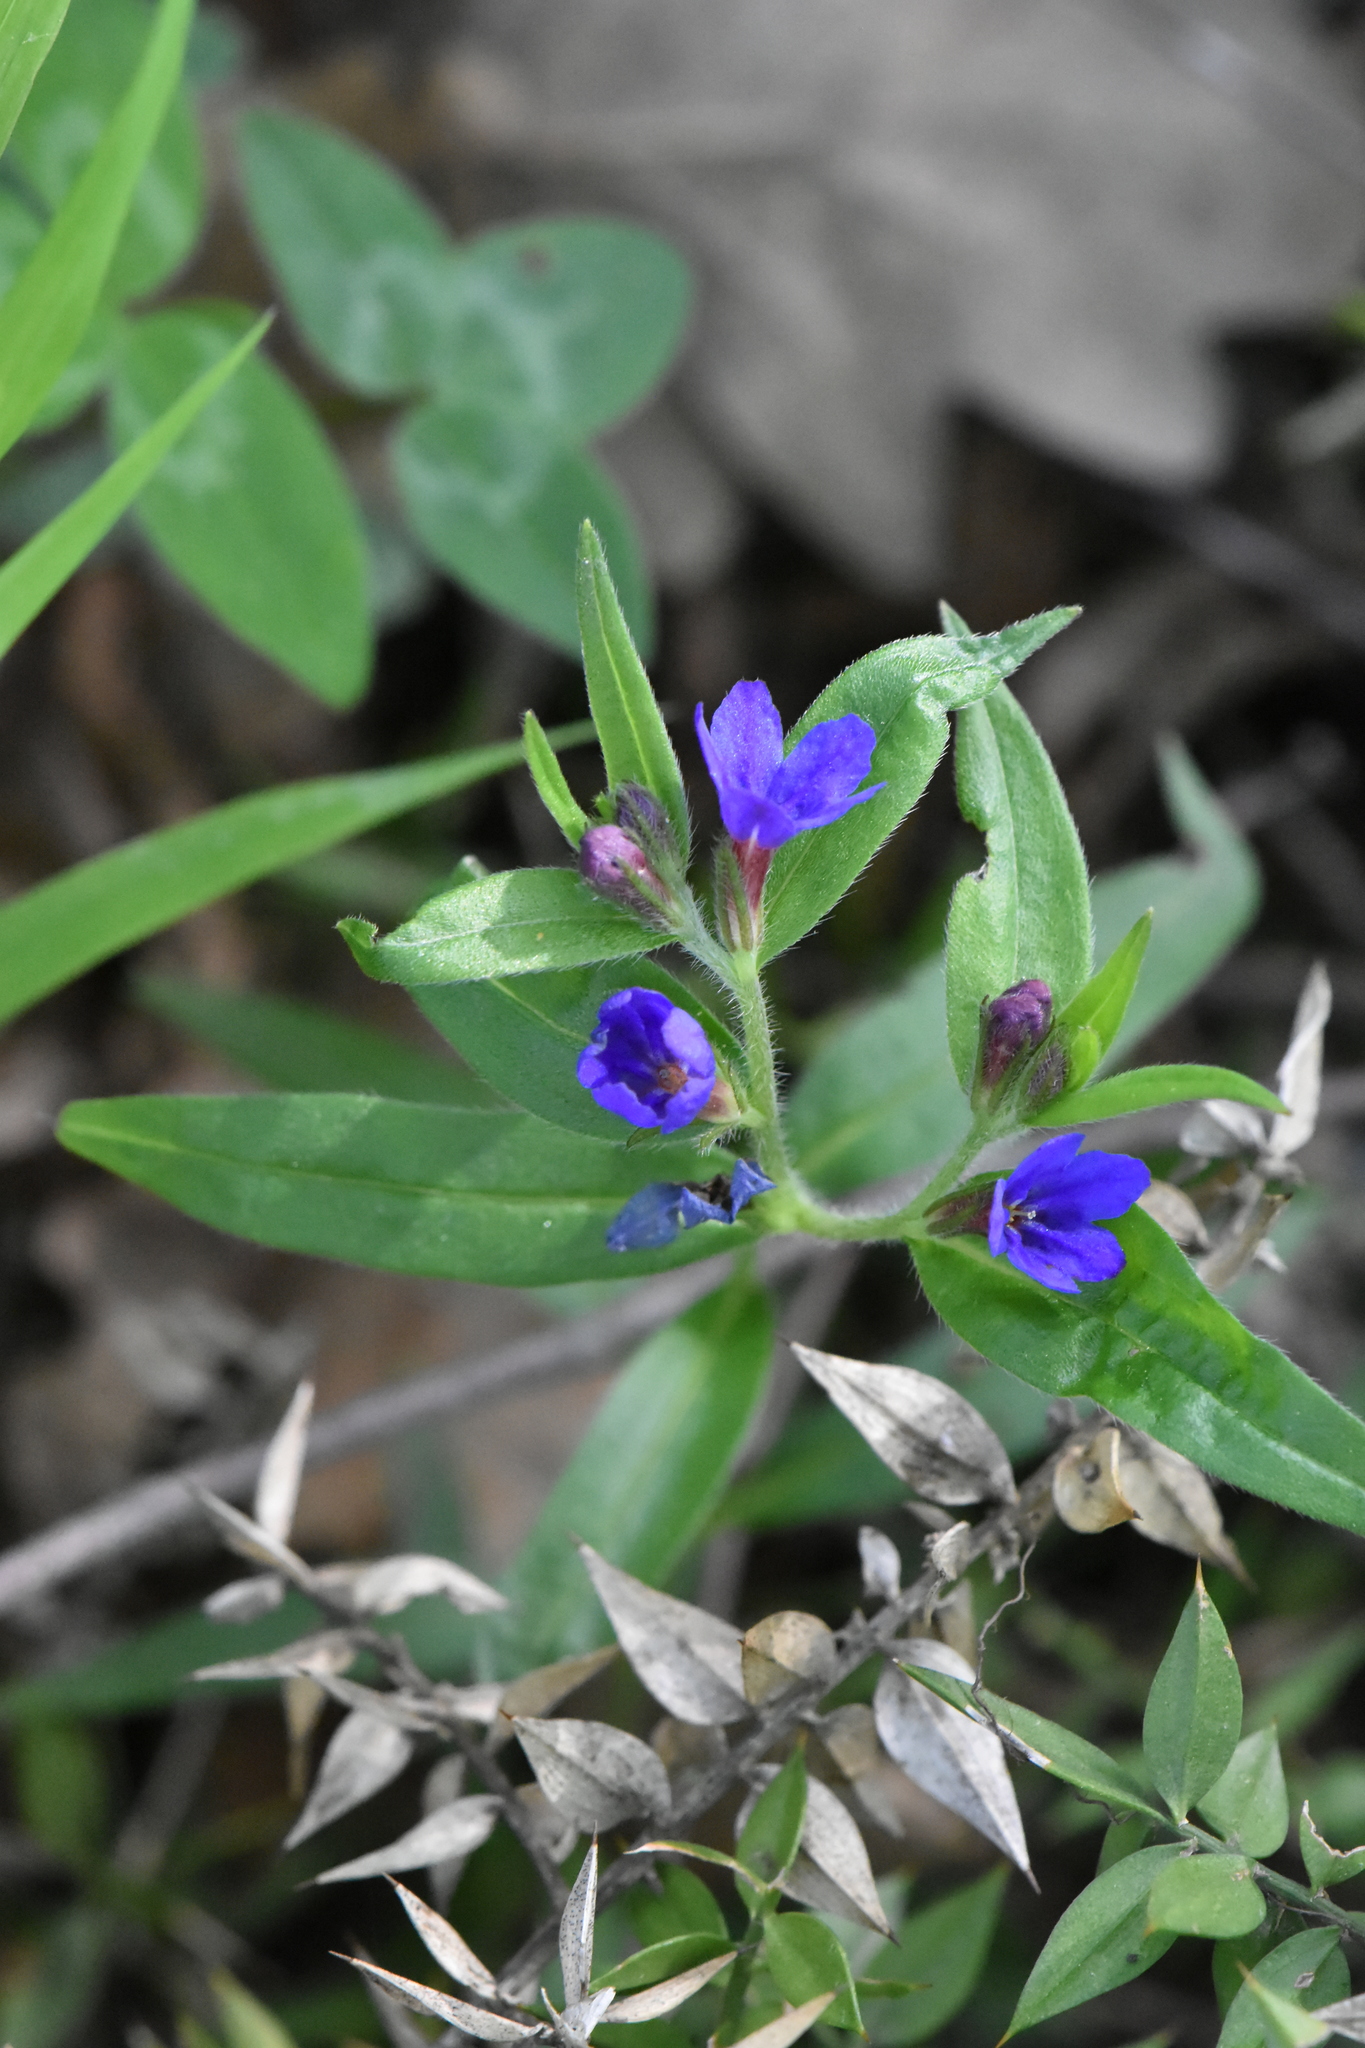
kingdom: Plantae
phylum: Tracheophyta
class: Magnoliopsida
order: Boraginales
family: Boraginaceae
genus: Aegonychon
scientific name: Aegonychon purpurocaeruleum
